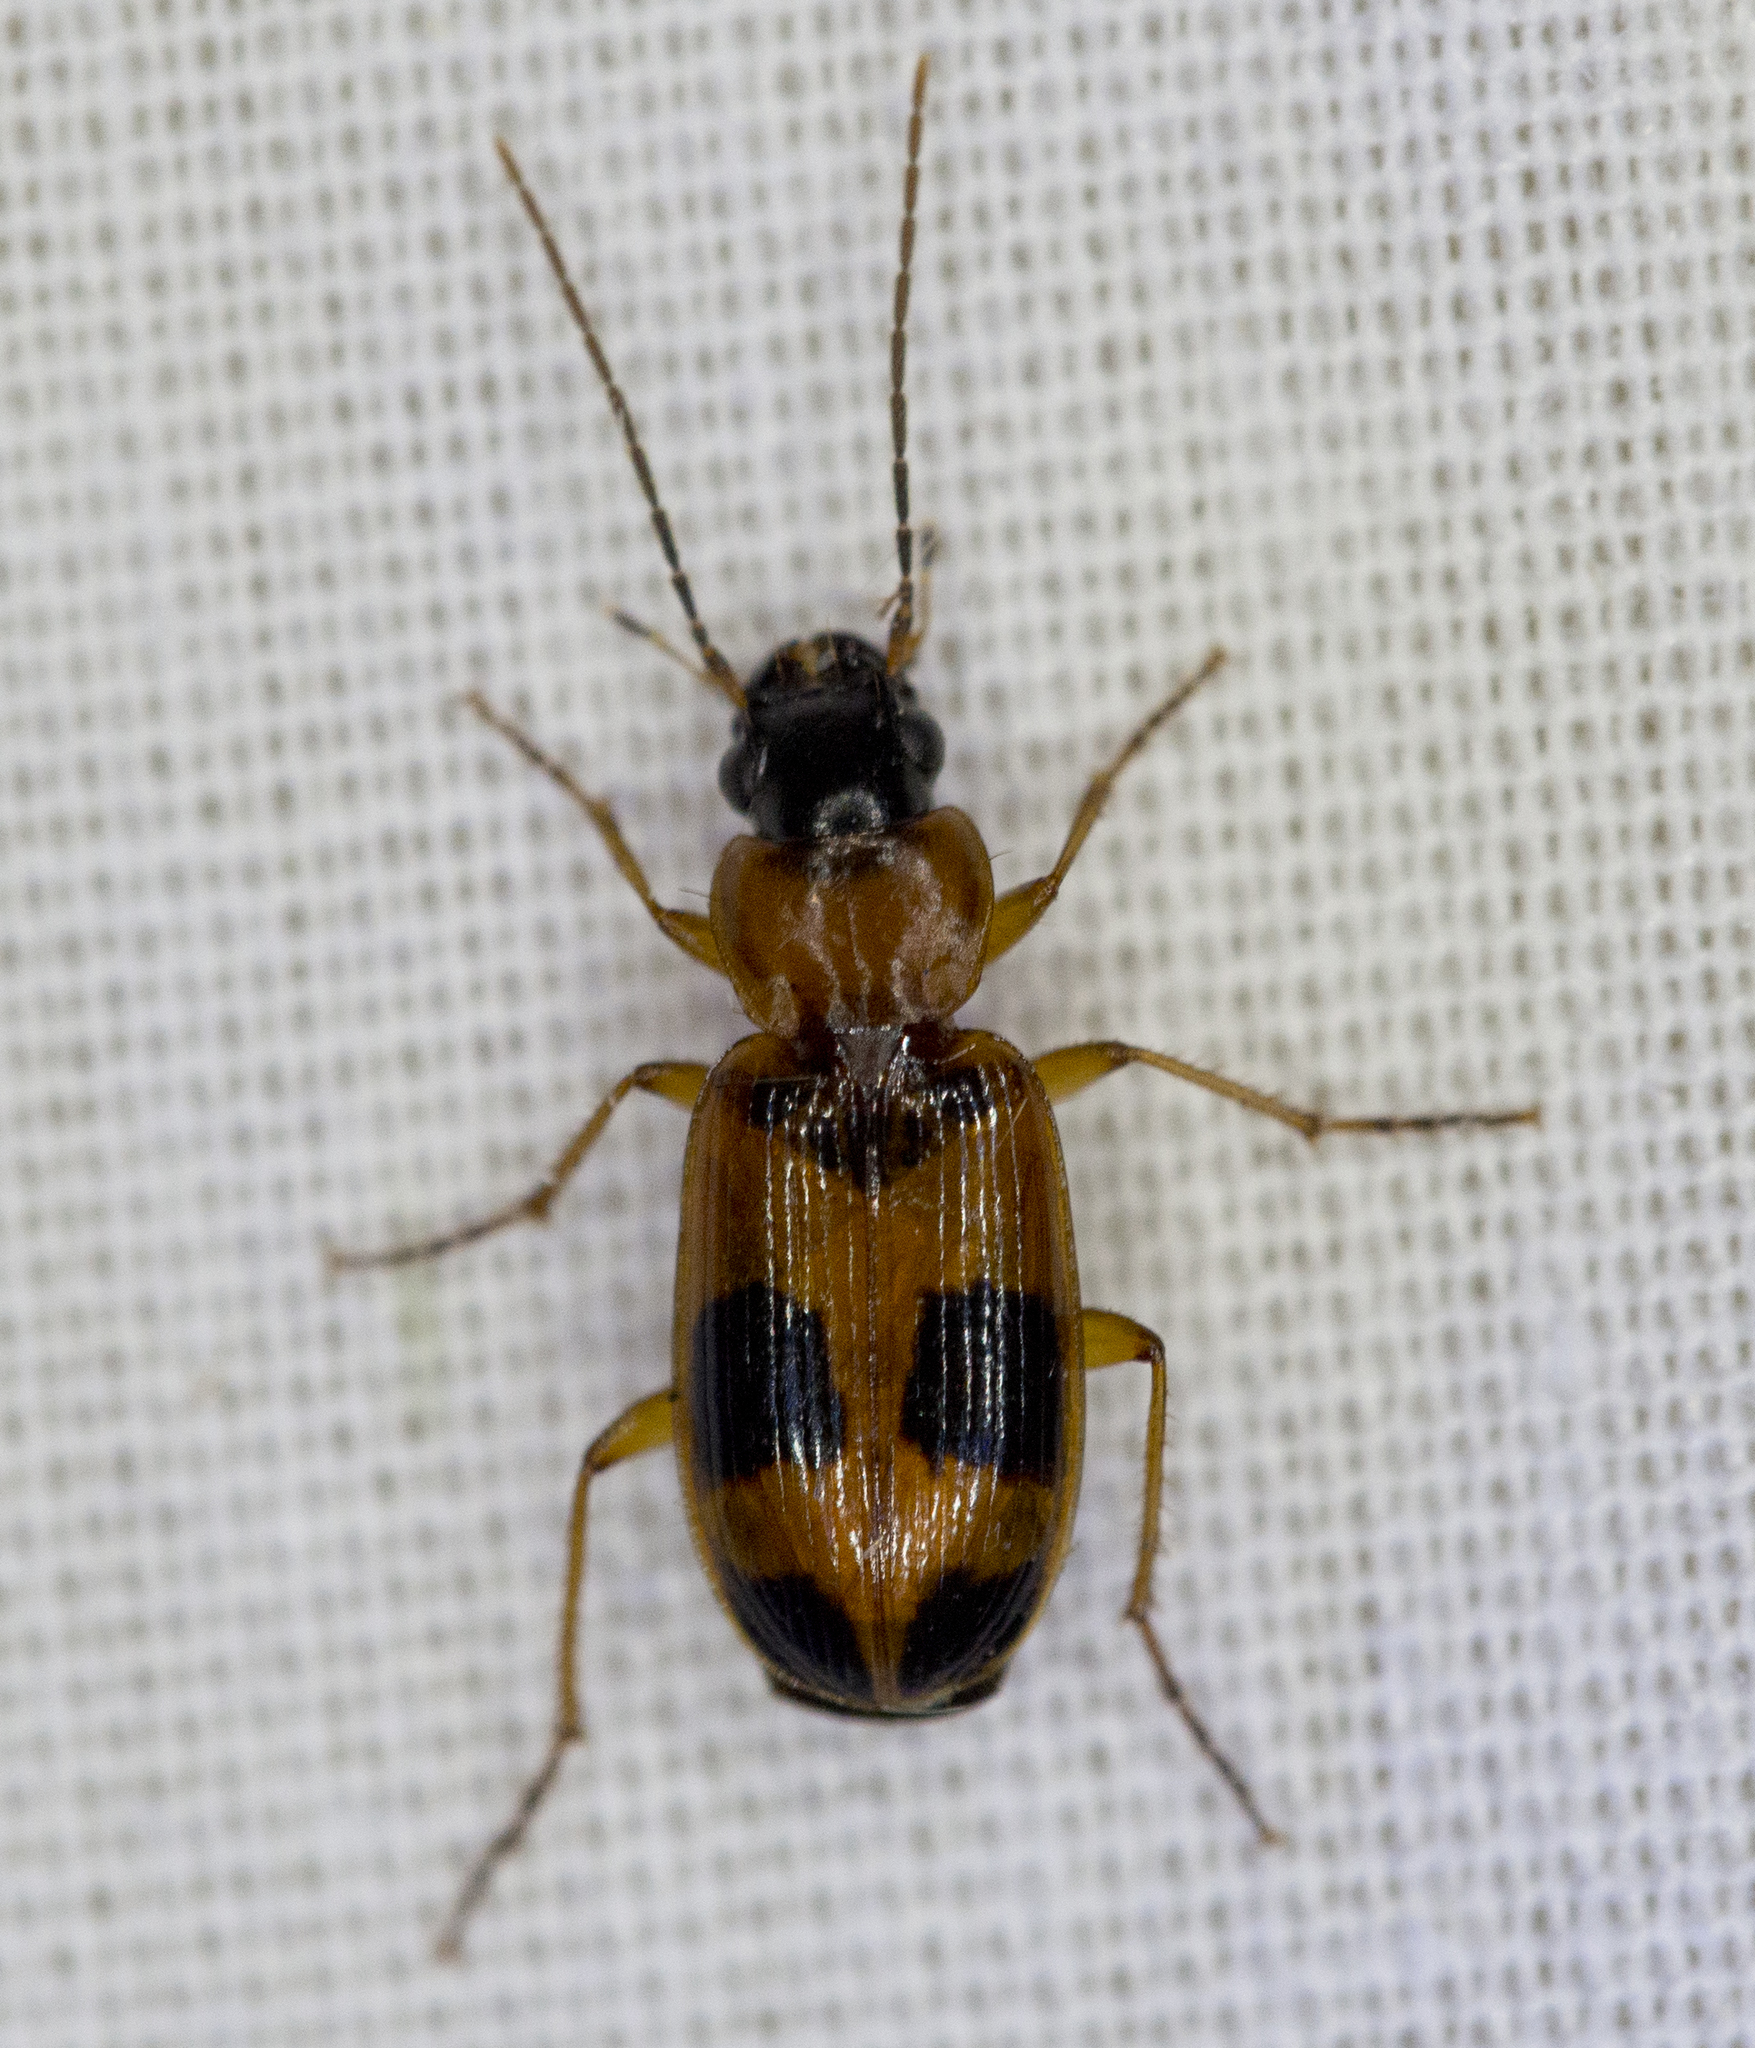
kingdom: Animalia
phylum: Arthropoda
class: Insecta
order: Coleoptera
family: Carabidae
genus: Badister
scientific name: Badister neopulchellus
